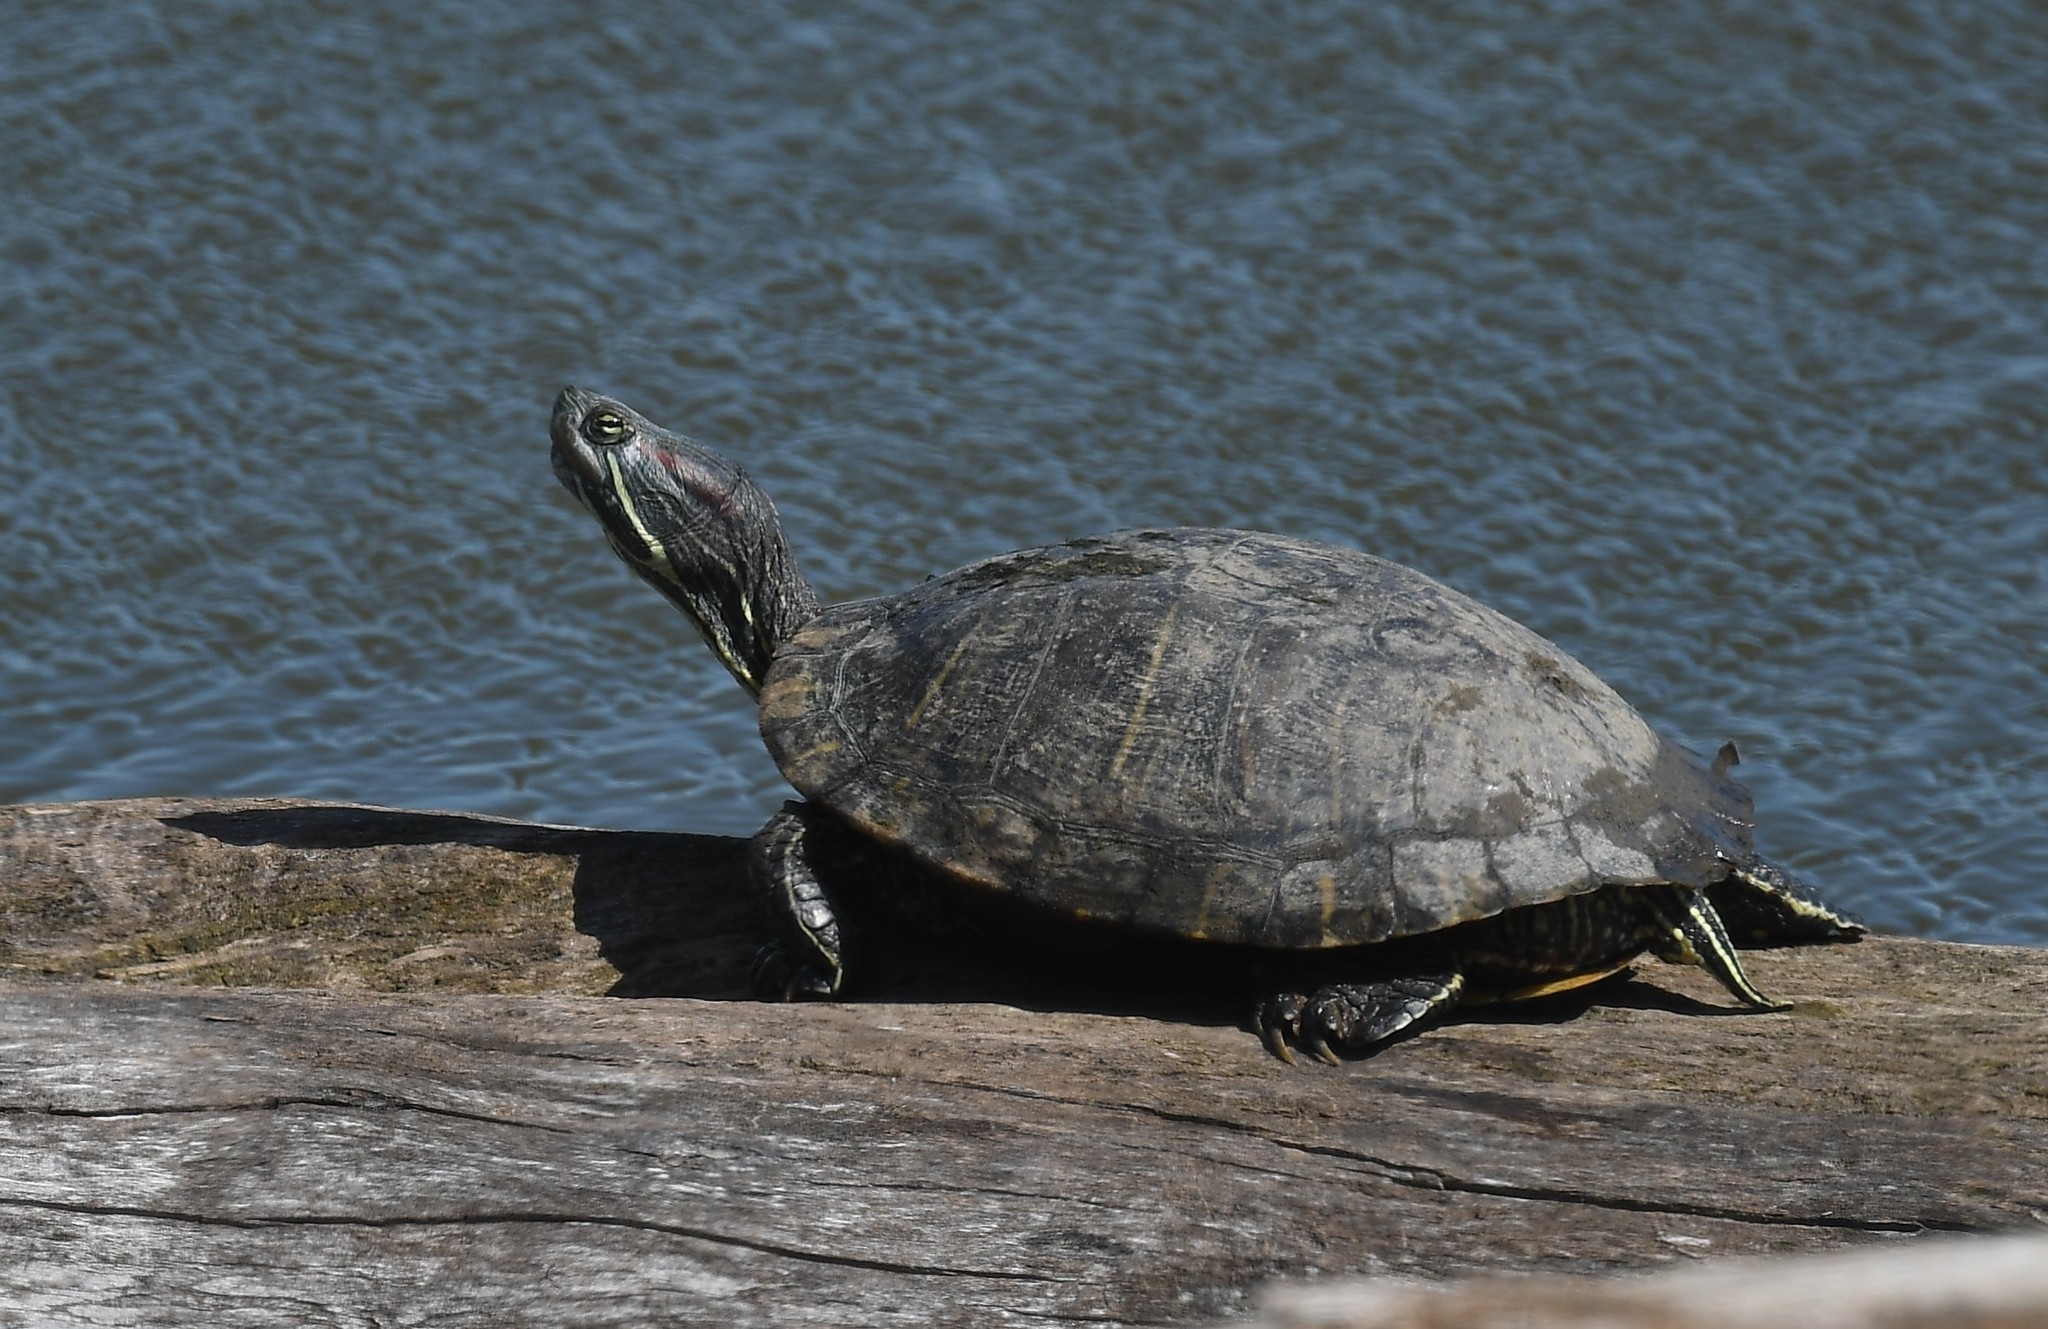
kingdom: Animalia
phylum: Chordata
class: Testudines
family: Emydidae
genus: Trachemys
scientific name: Trachemys scripta
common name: Slider
